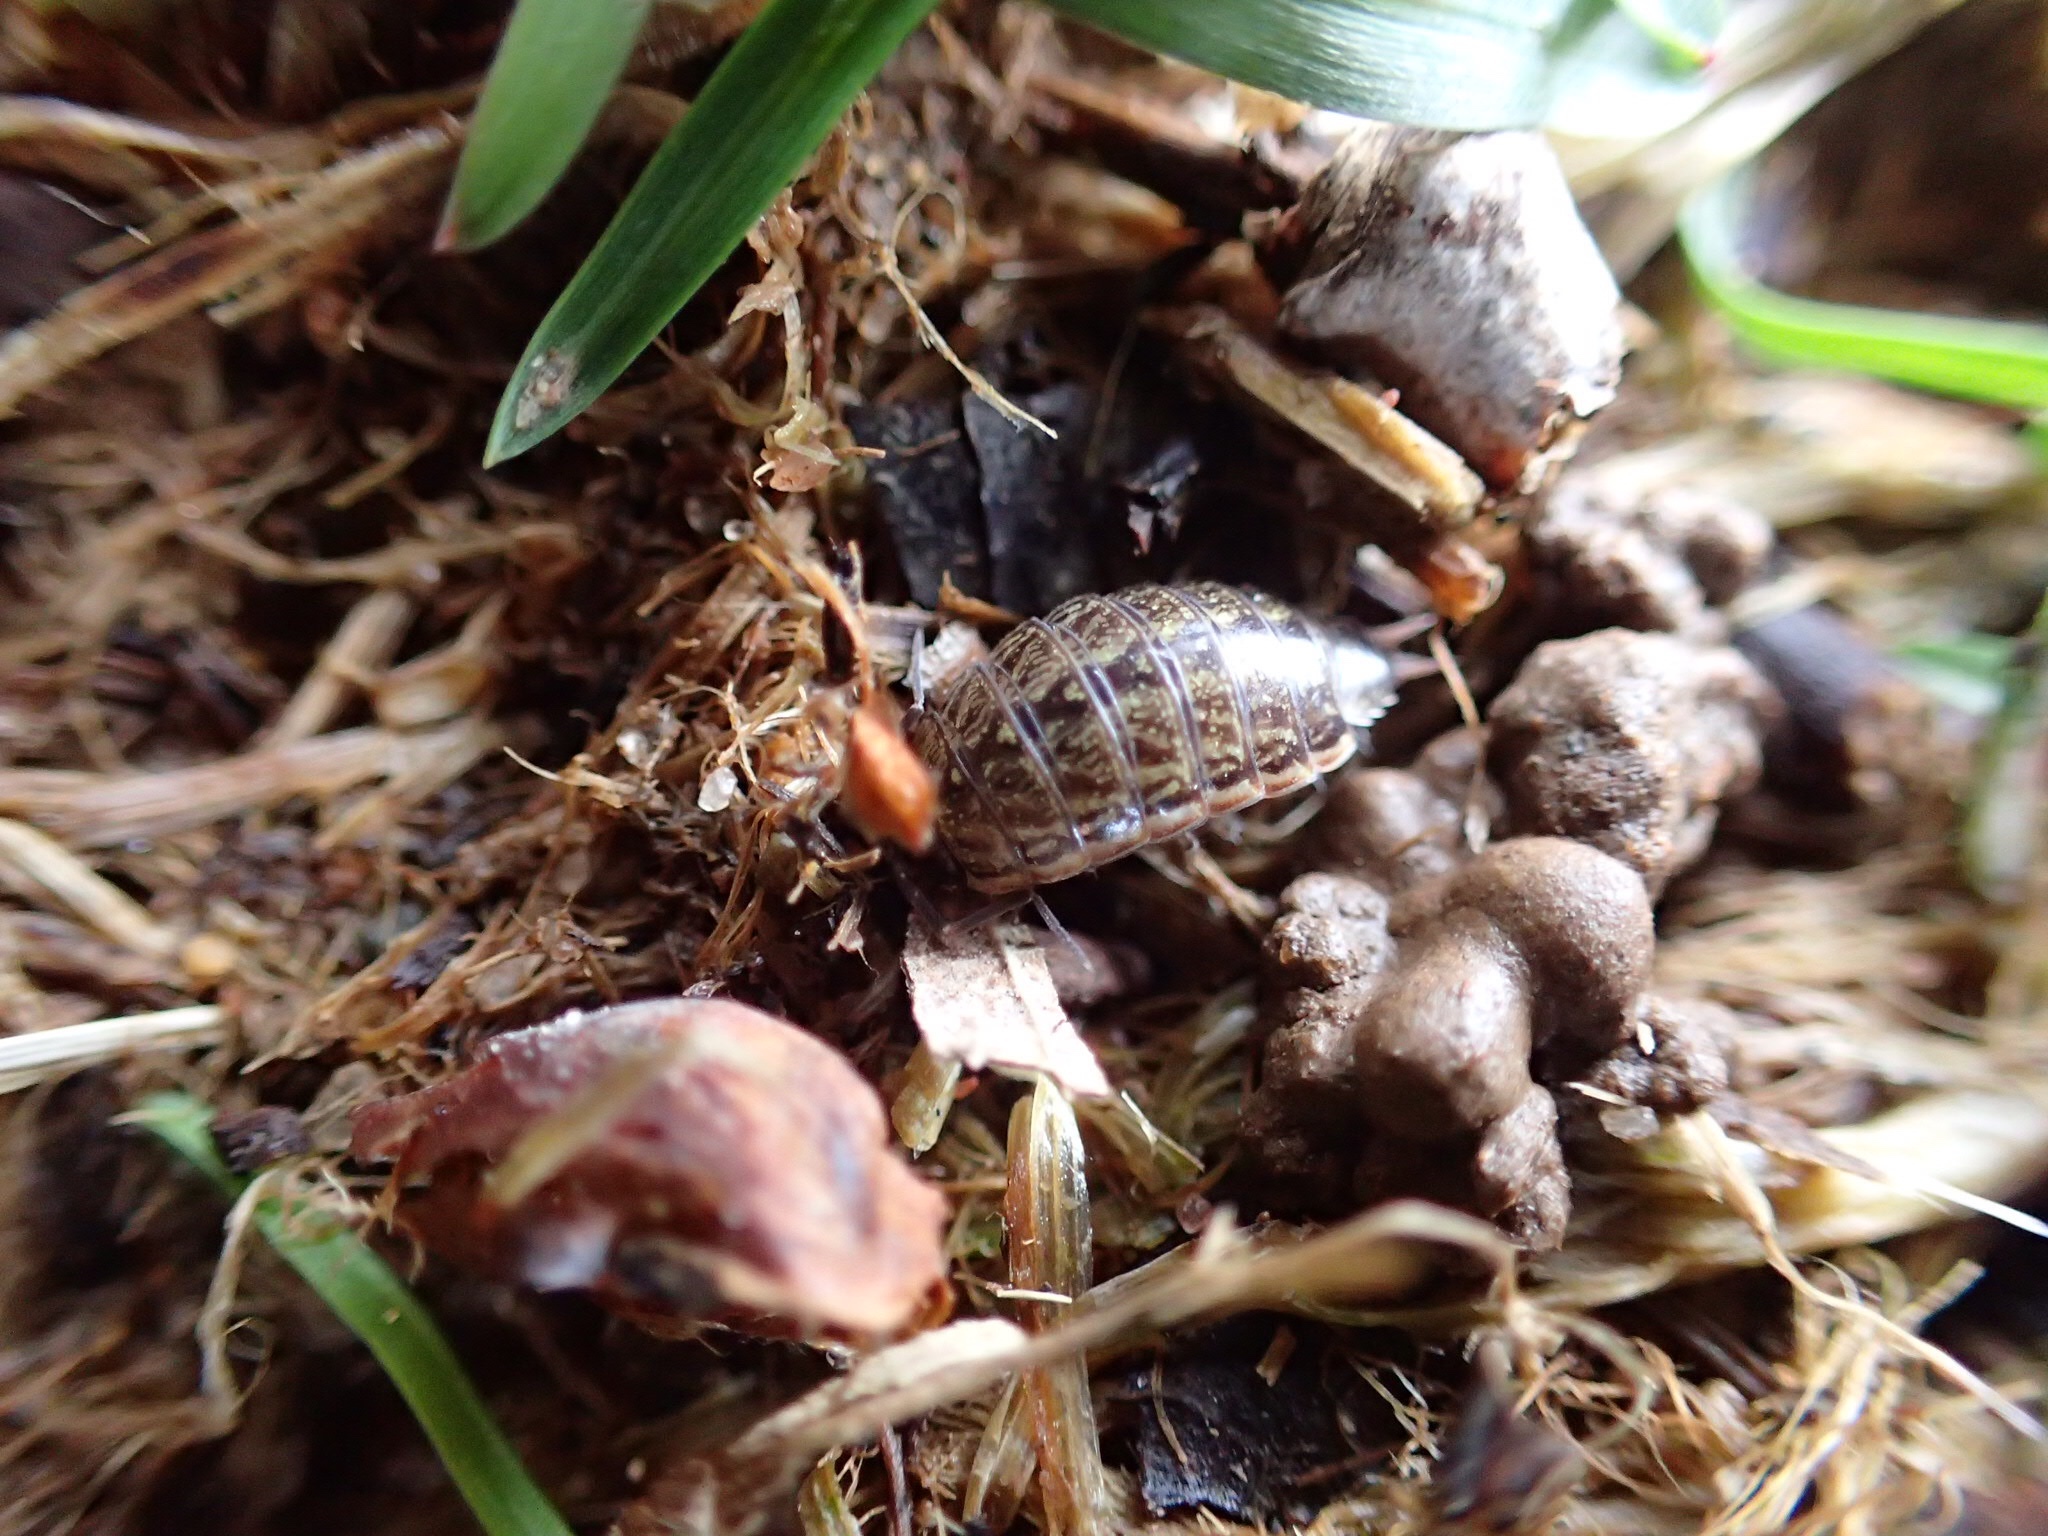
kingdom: Animalia
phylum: Arthropoda
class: Malacostraca
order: Isopoda
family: Philosciidae
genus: Philoscia
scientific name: Philoscia muscorum
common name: Common striped woodlouse
